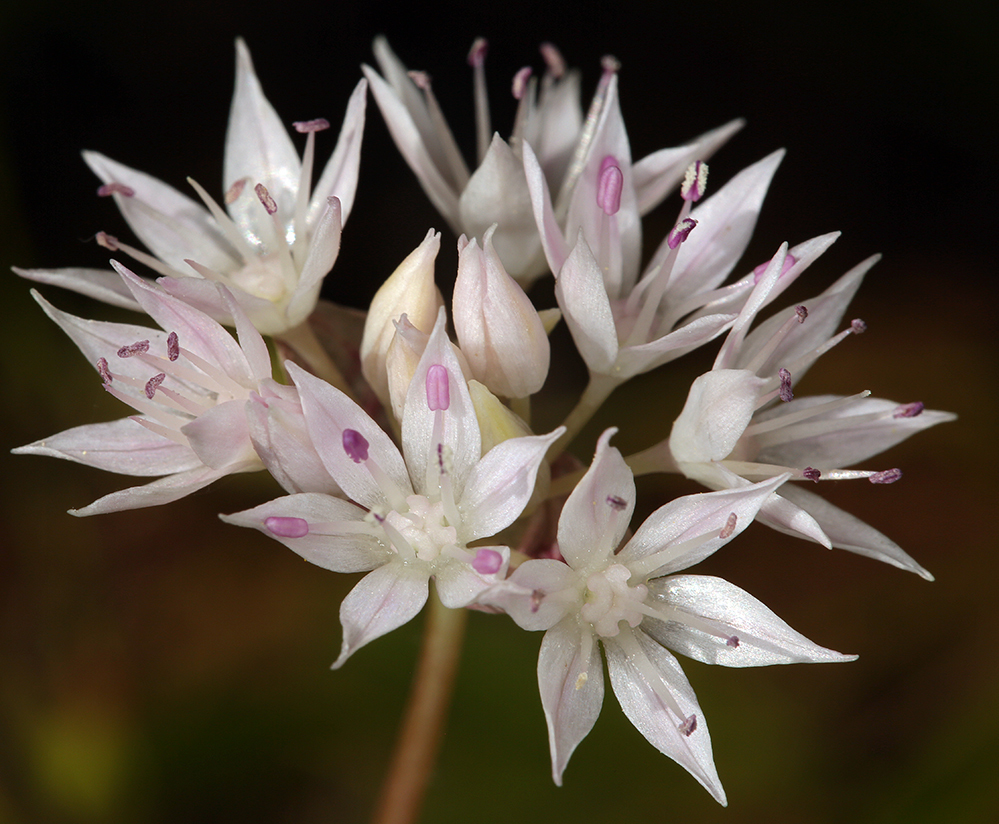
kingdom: Plantae
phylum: Tracheophyta
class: Liliopsida
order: Asparagales
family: Amaryllidaceae
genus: Allium
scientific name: Allium amplectens
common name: Narrow-leaved onion
